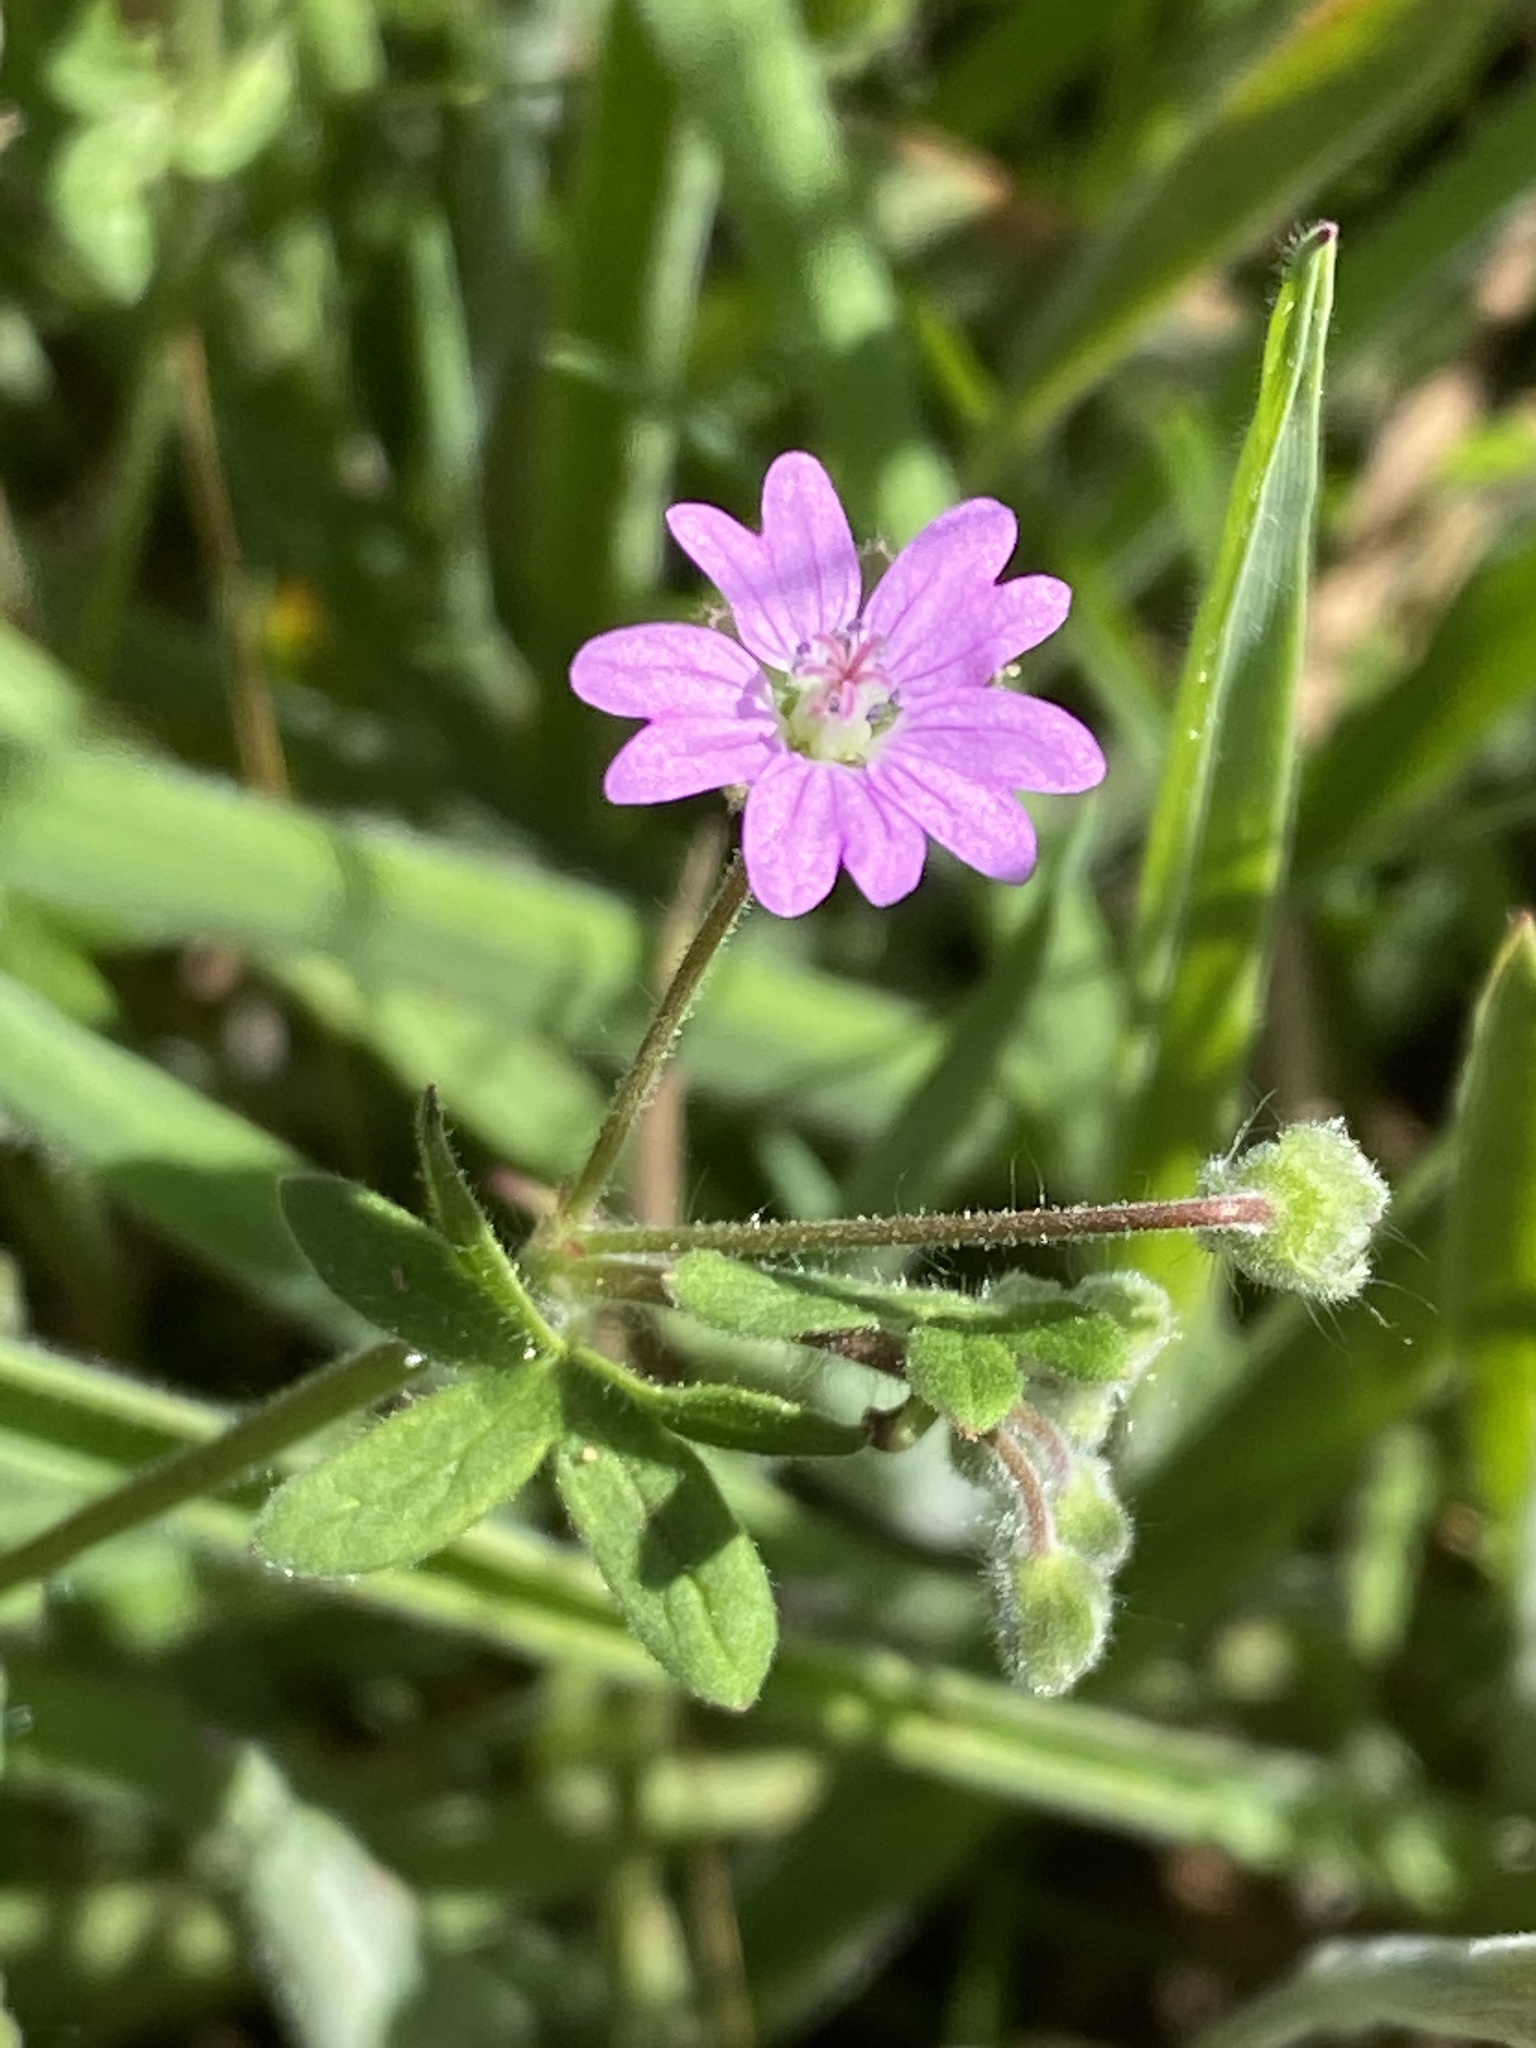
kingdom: Plantae
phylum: Tracheophyta
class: Magnoliopsida
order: Geraniales
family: Geraniaceae
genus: Geranium
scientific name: Geranium molle
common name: Dove's-foot crane's-bill
